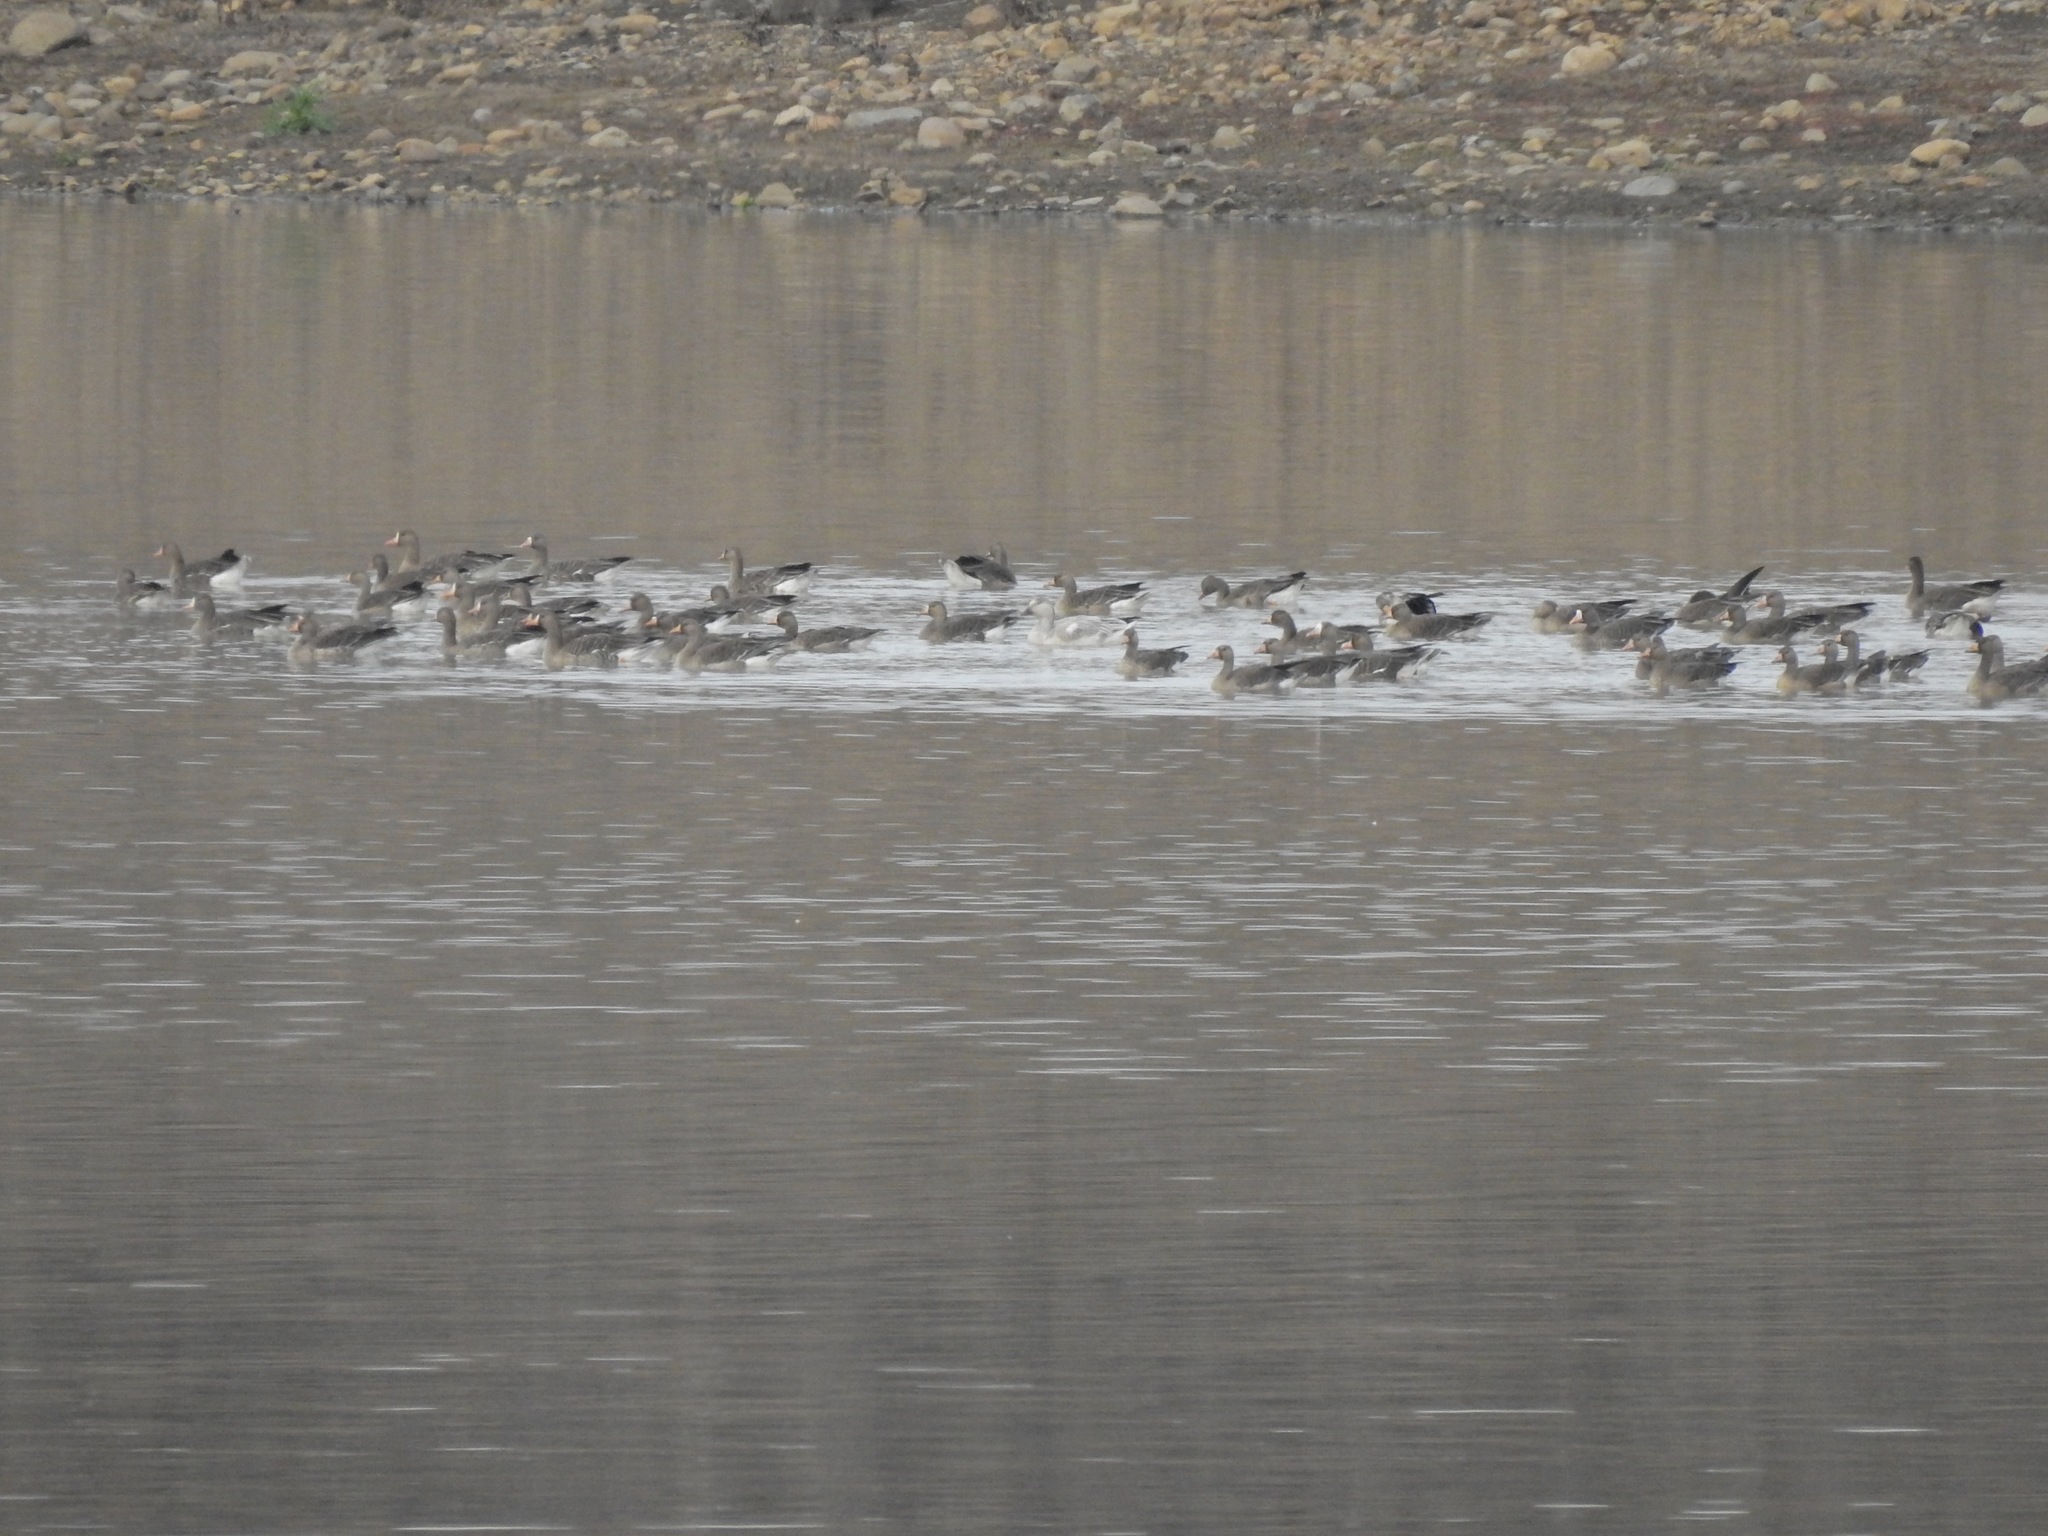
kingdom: Animalia
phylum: Chordata
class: Aves
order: Anseriformes
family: Anatidae
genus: Anser
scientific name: Anser caerulescens
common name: Snow goose
